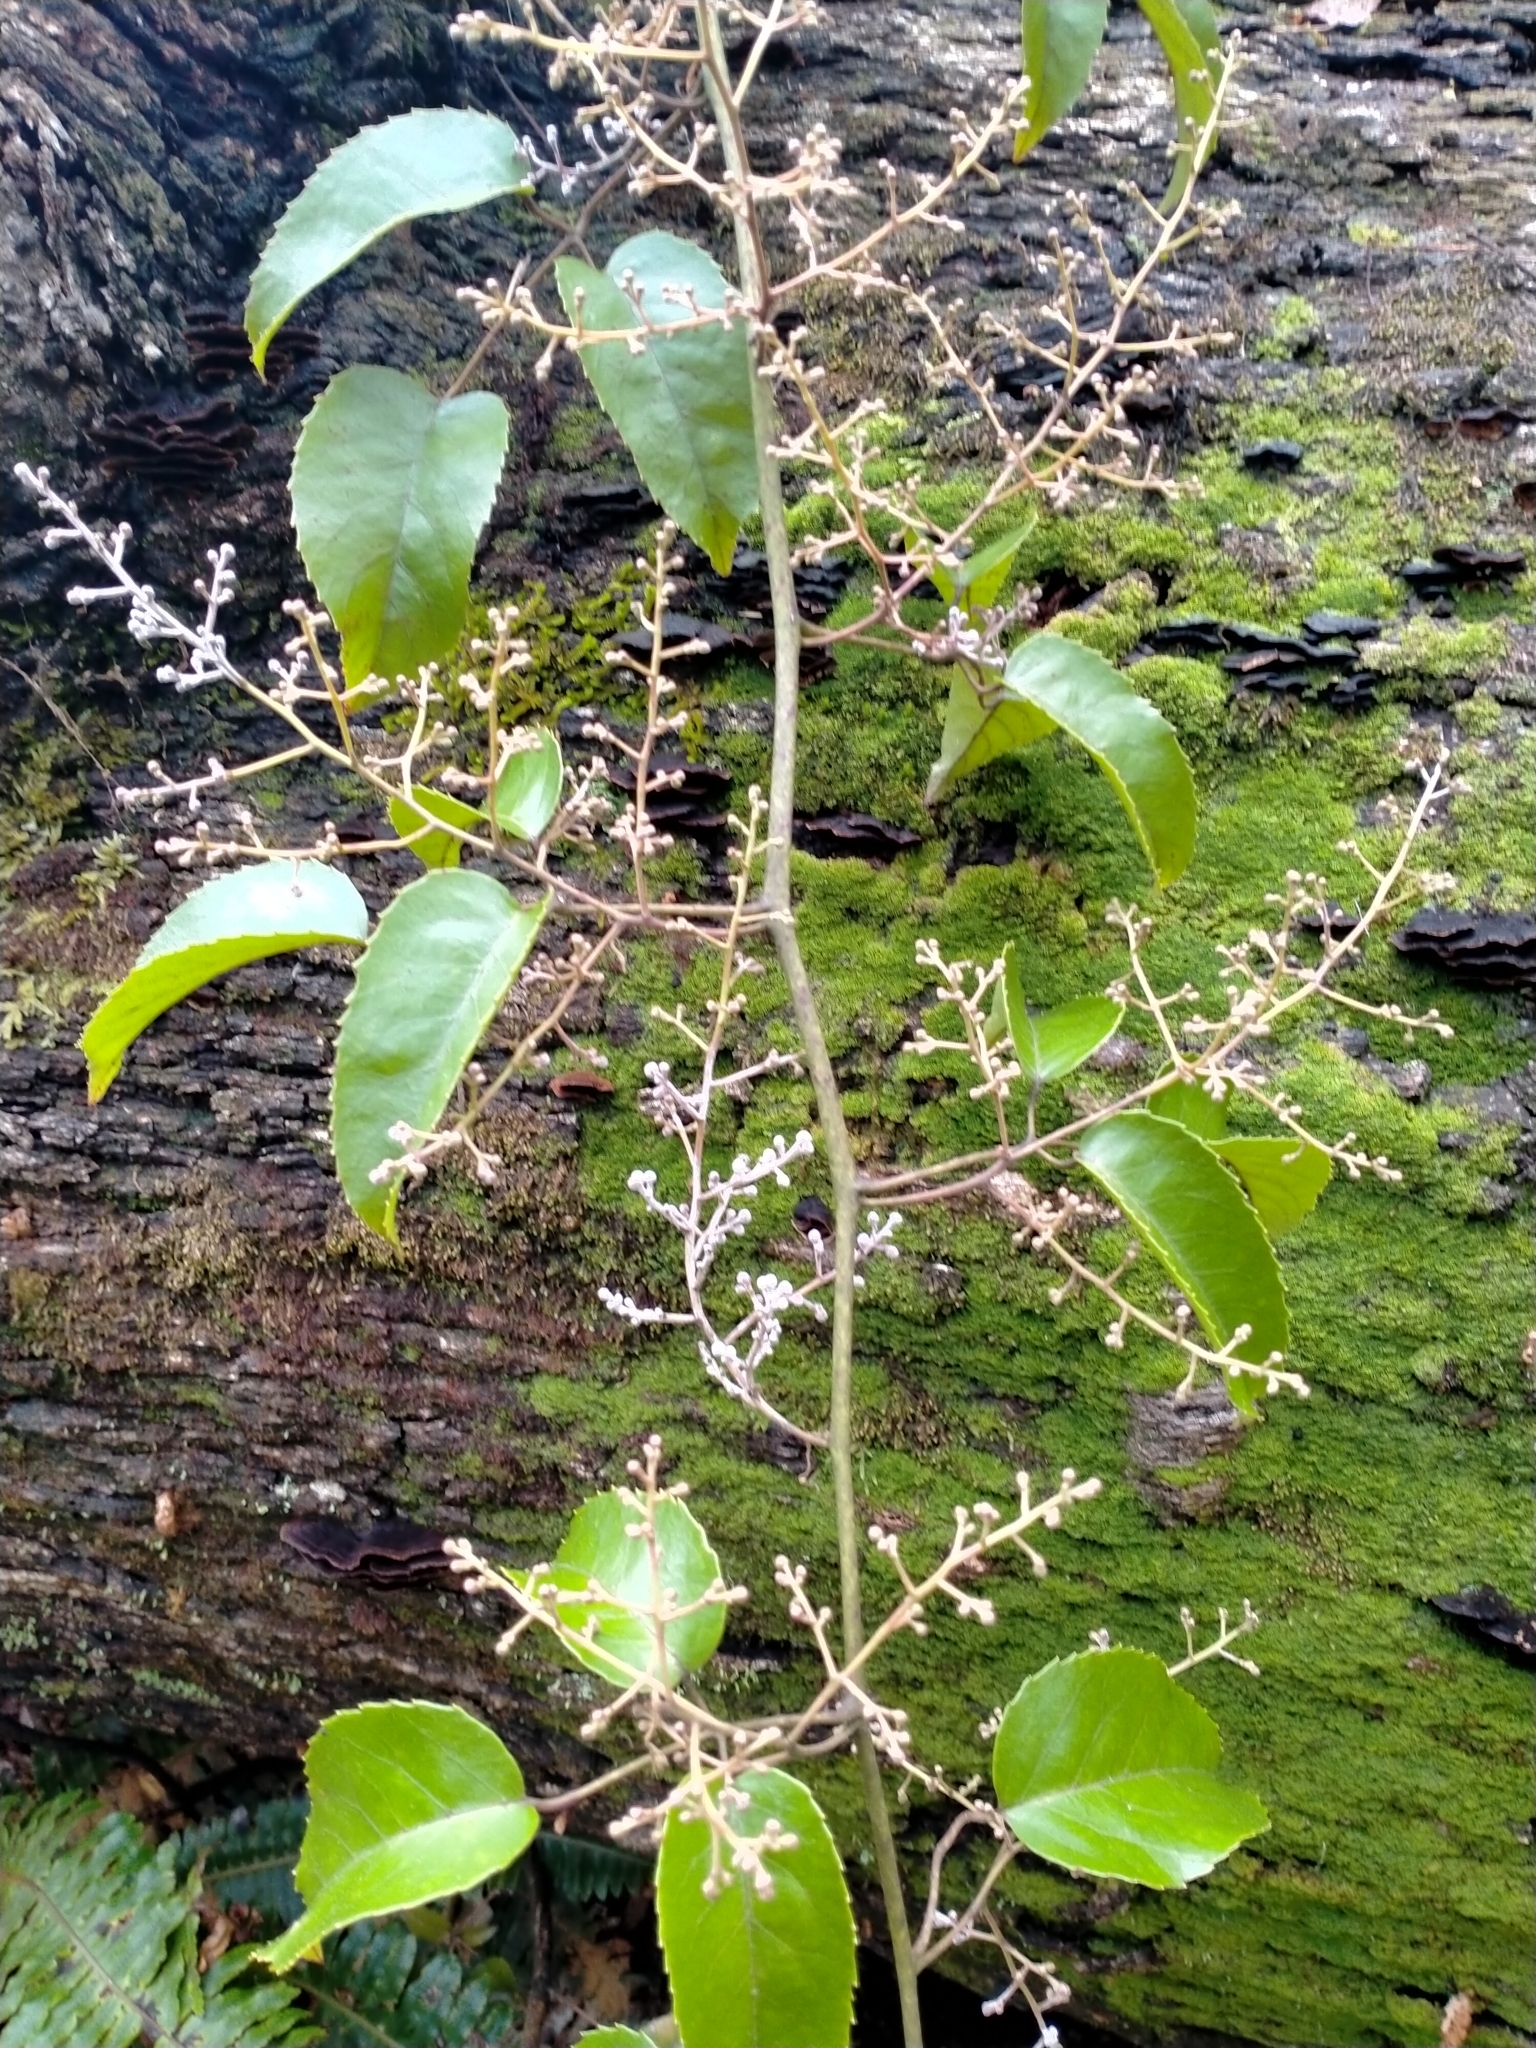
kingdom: Plantae
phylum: Tracheophyta
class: Magnoliopsida
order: Rosales
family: Rosaceae
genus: Rubus
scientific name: Rubus cissoides
